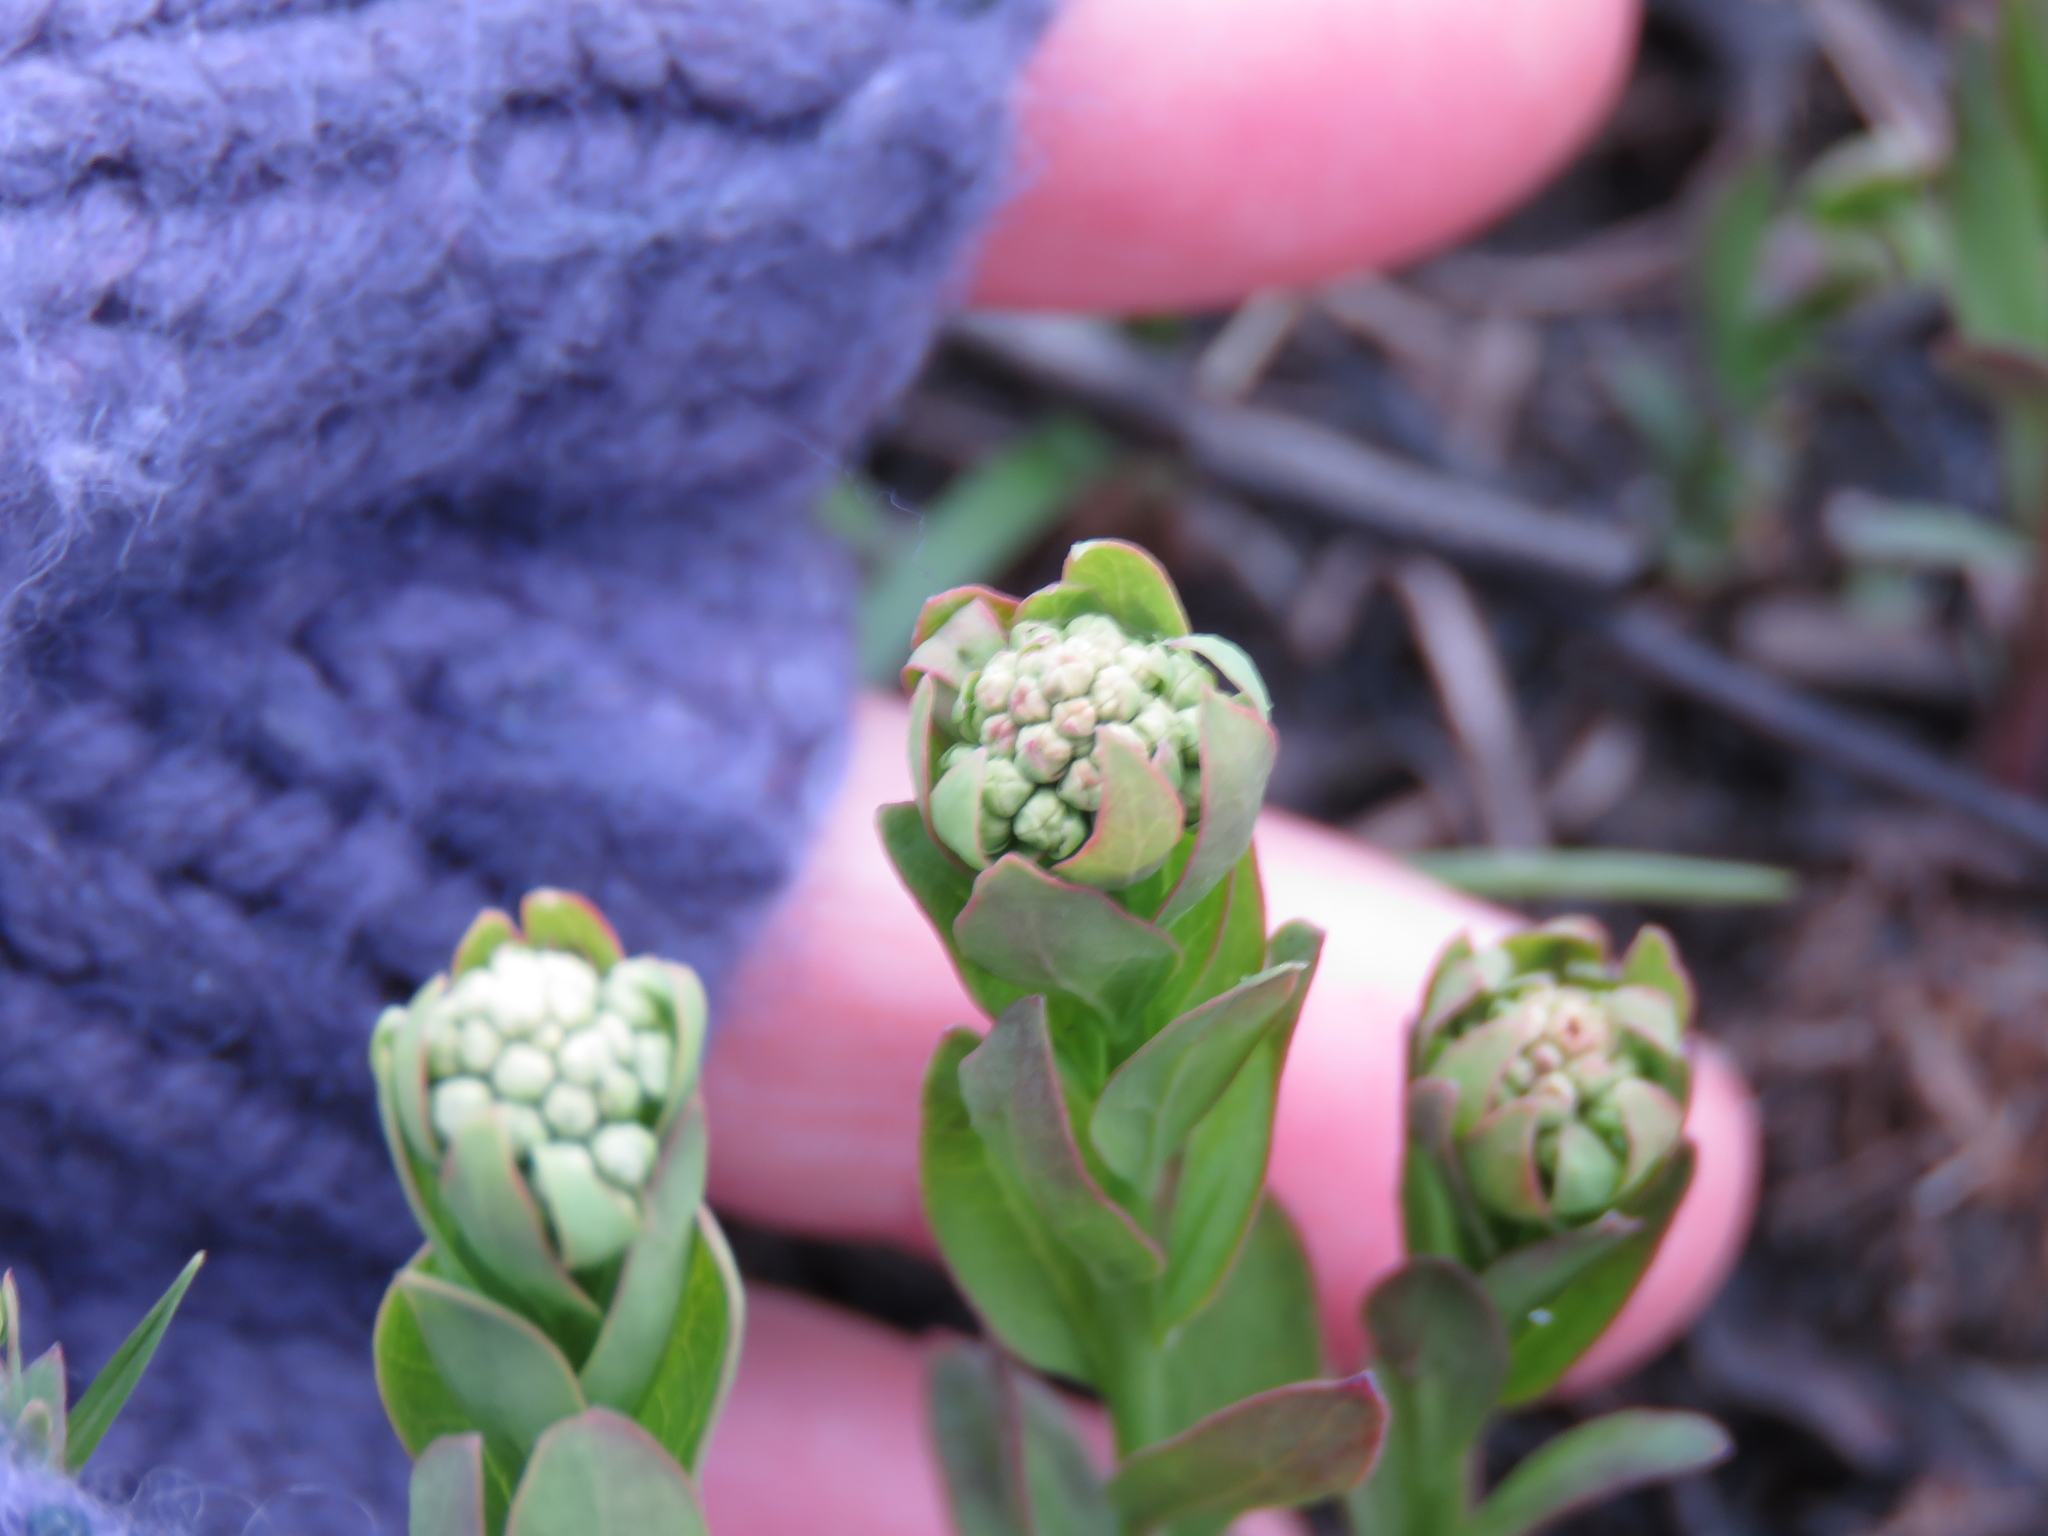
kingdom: Plantae
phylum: Tracheophyta
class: Magnoliopsida
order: Santalales
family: Comandraceae
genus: Comandra
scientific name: Comandra umbellata
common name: Bastard toadflax
